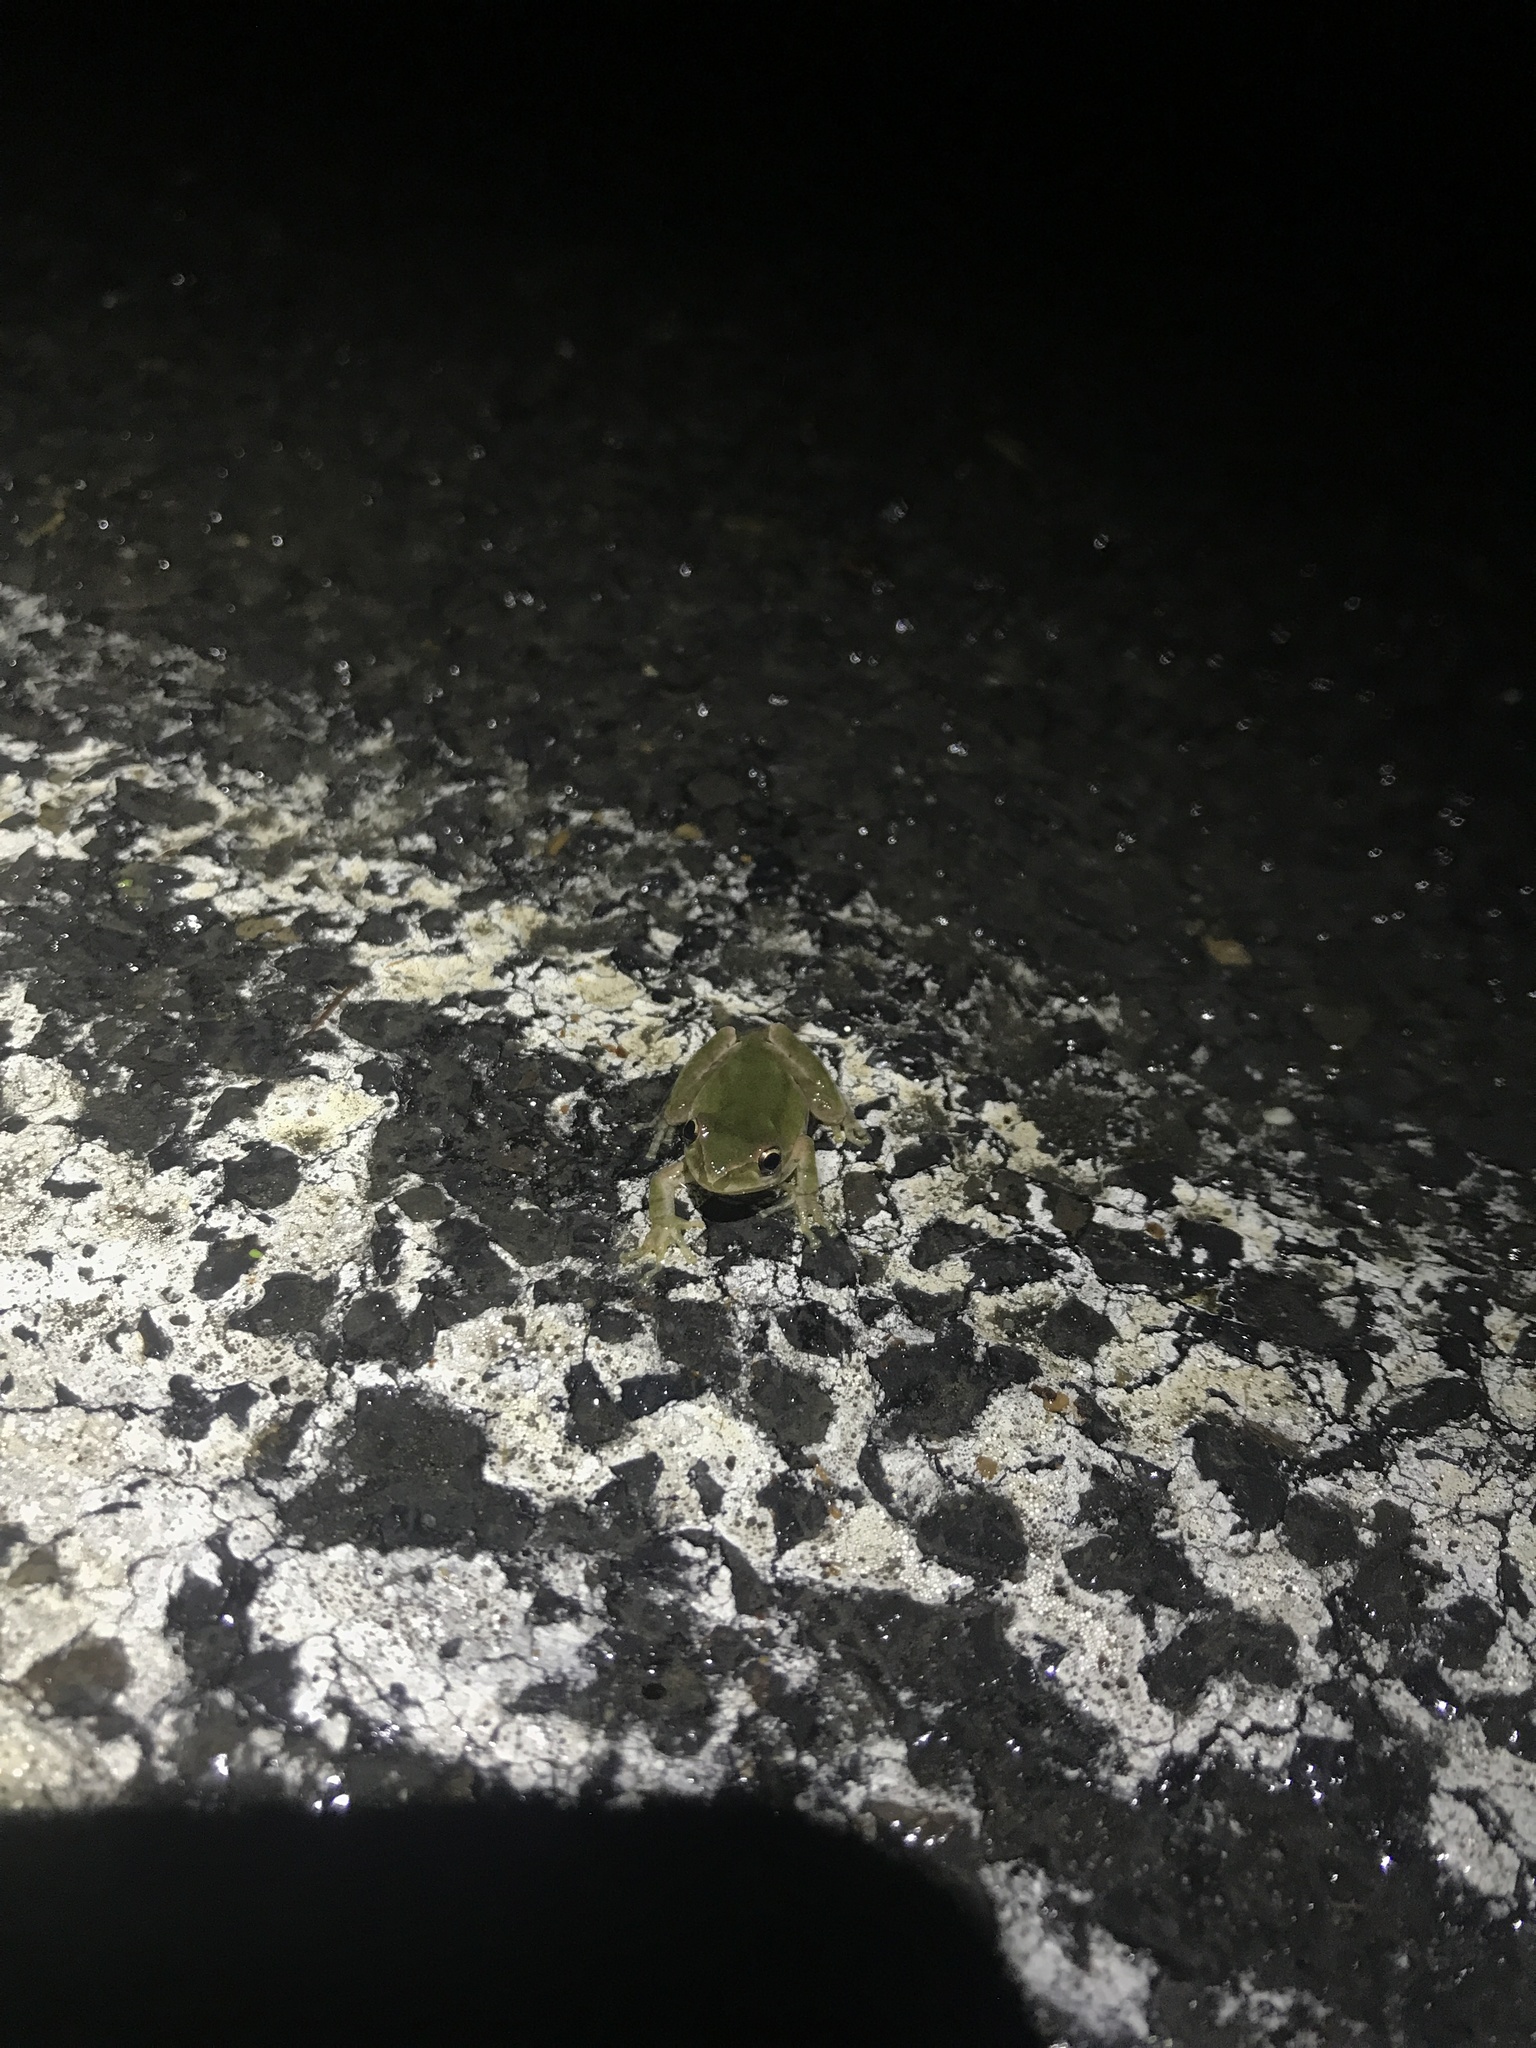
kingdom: Animalia
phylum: Chordata
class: Amphibia
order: Anura
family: Hylidae
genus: Pseudacris
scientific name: Pseudacris regilla
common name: Pacific chorus frog
